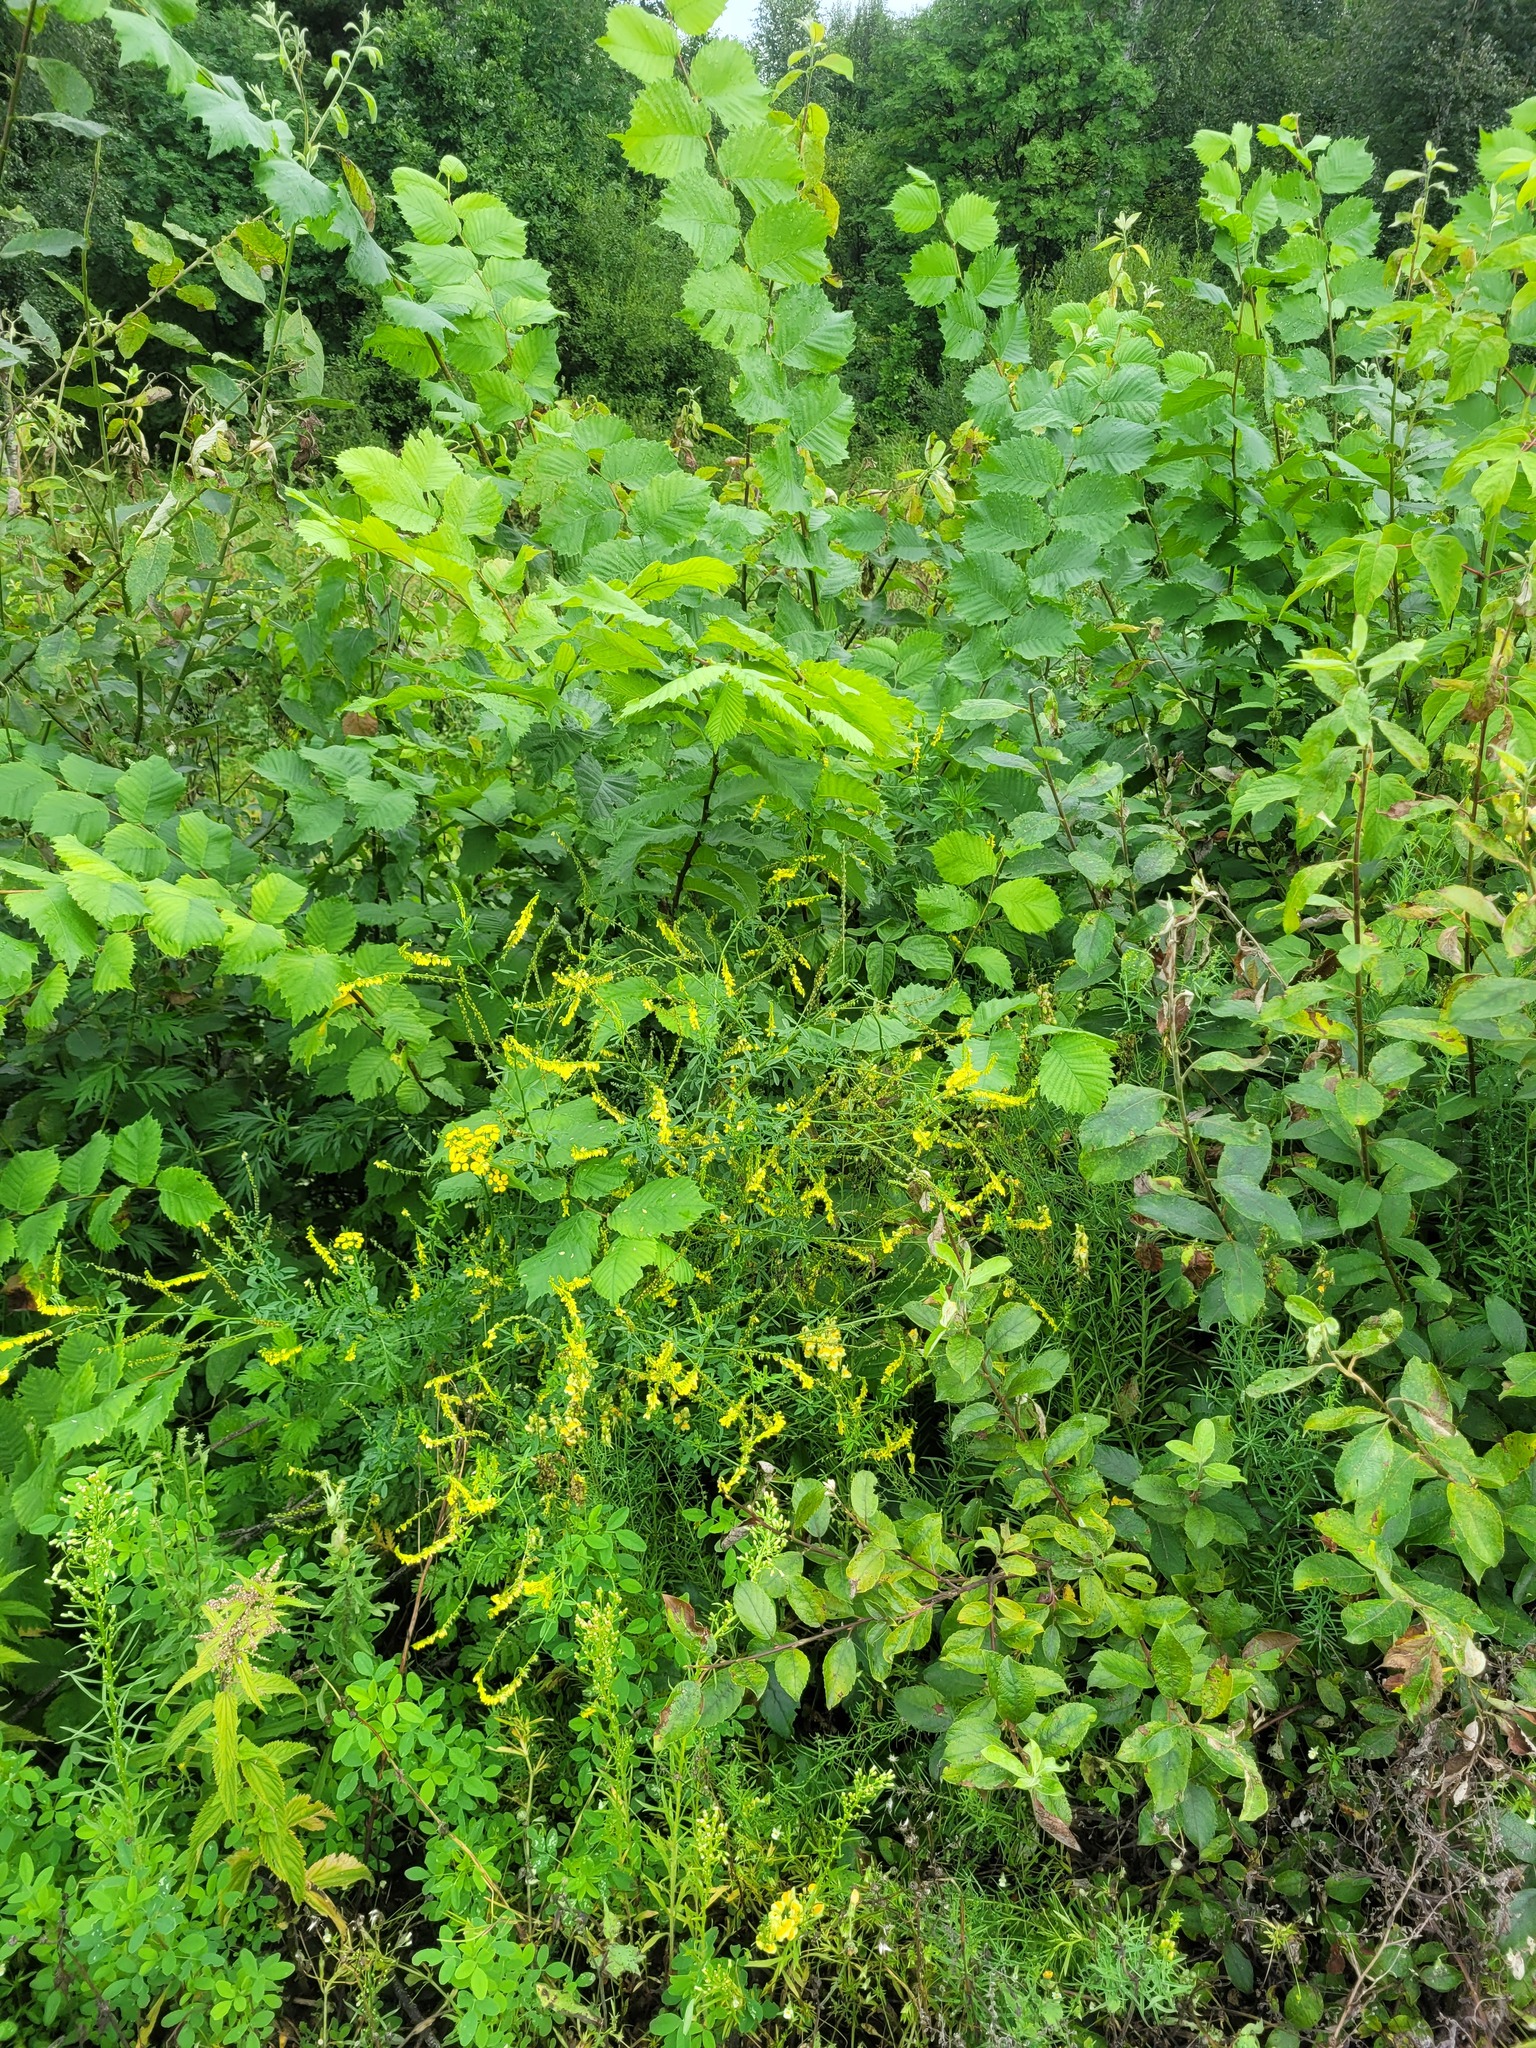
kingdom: Plantae
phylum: Tracheophyta
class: Magnoliopsida
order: Fabales
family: Fabaceae
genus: Melilotus
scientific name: Melilotus officinalis
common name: Sweetclover
